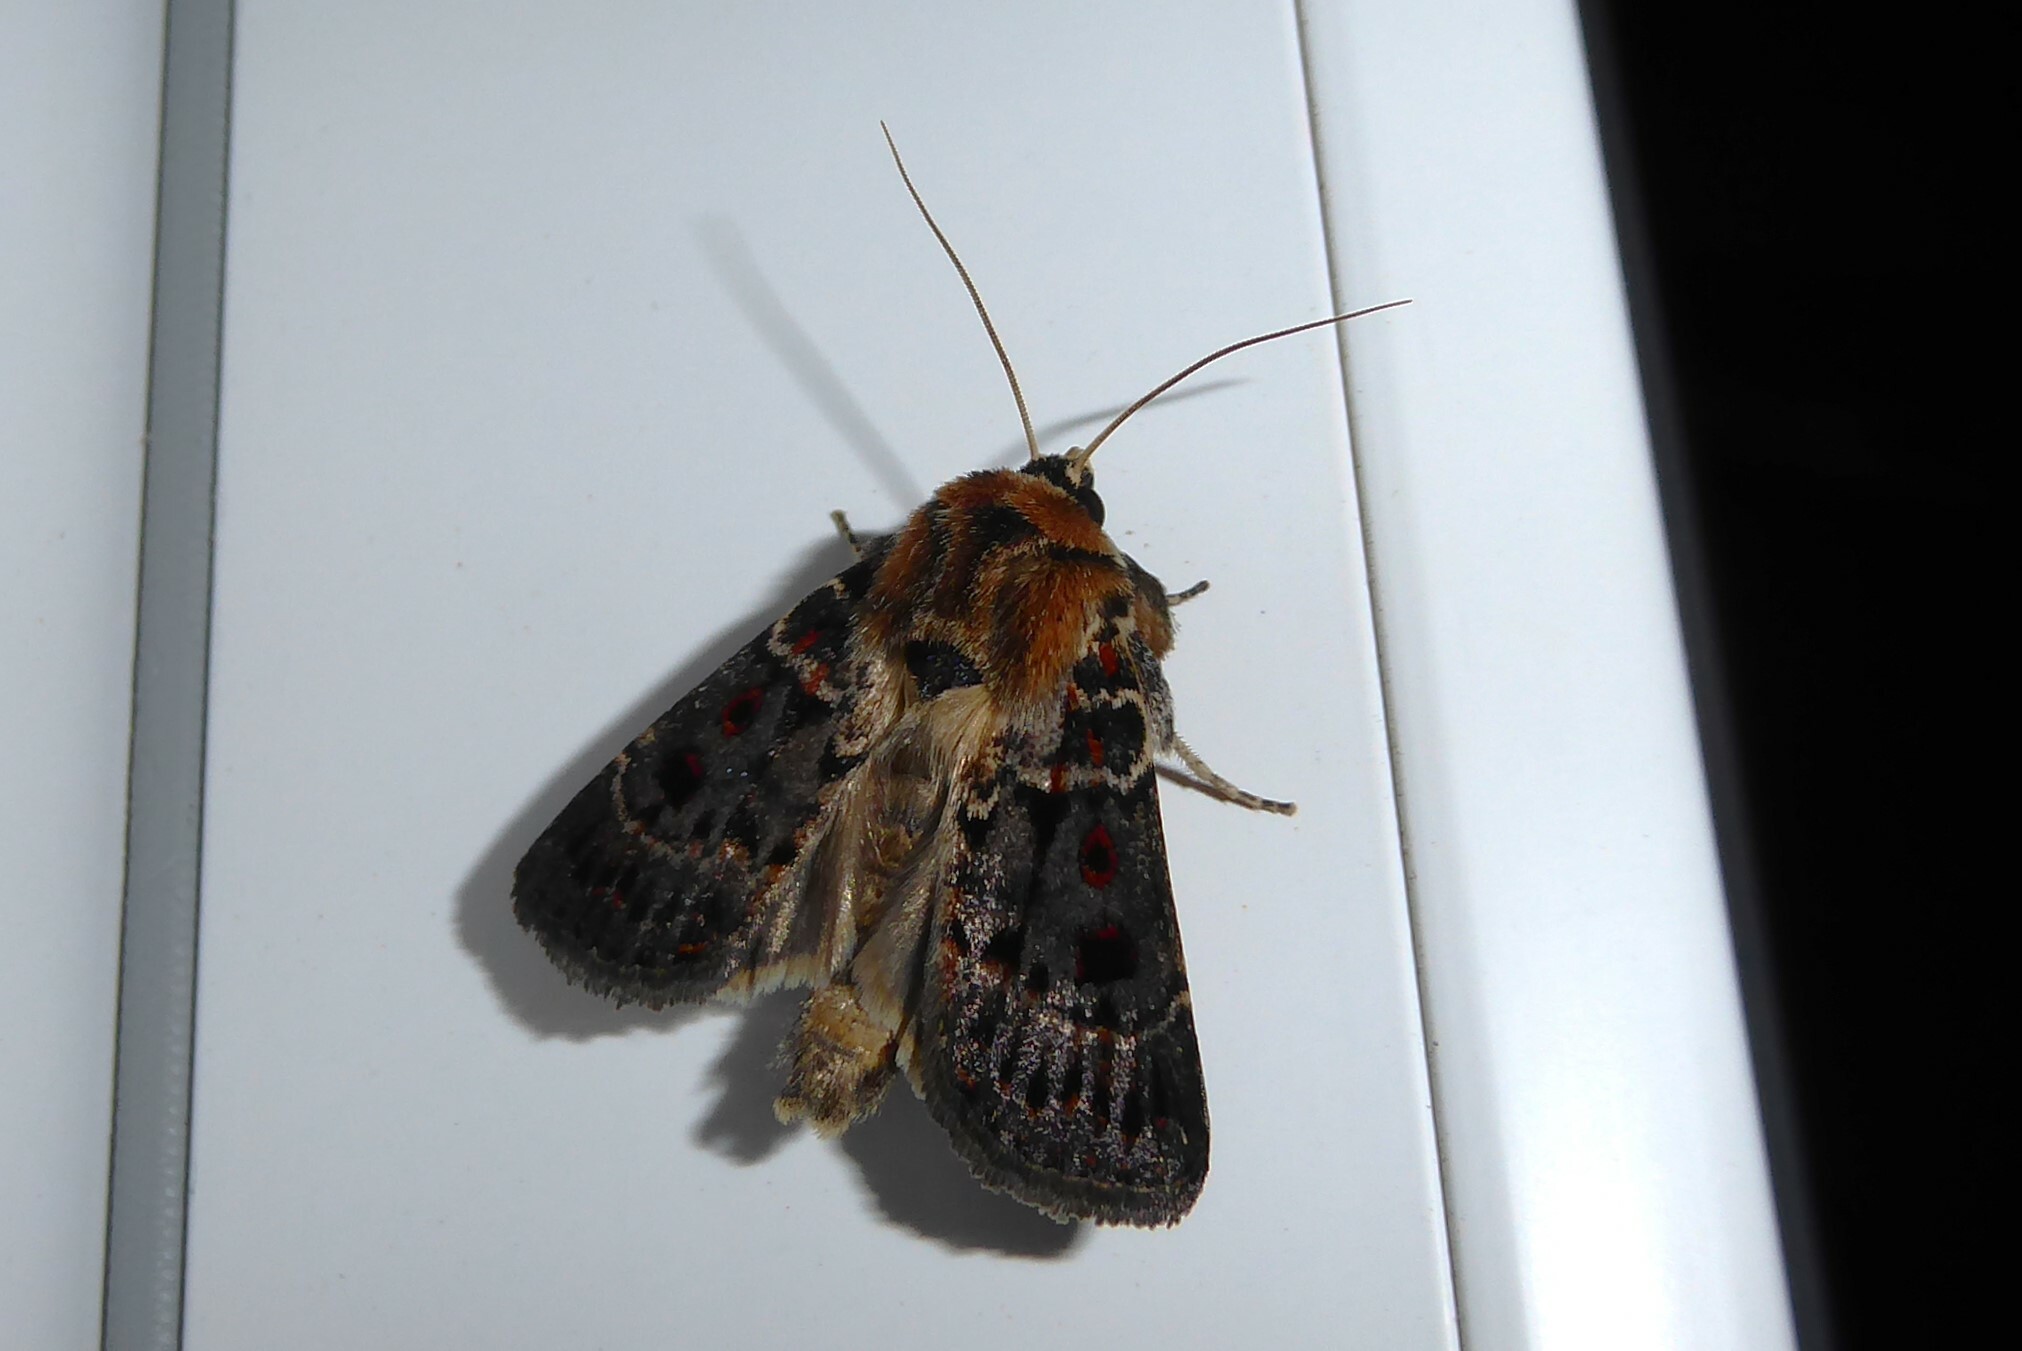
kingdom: Animalia
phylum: Arthropoda
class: Insecta
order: Lepidoptera
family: Noctuidae
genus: Proteuxoa
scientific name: Proteuxoa sanguinipuncta
